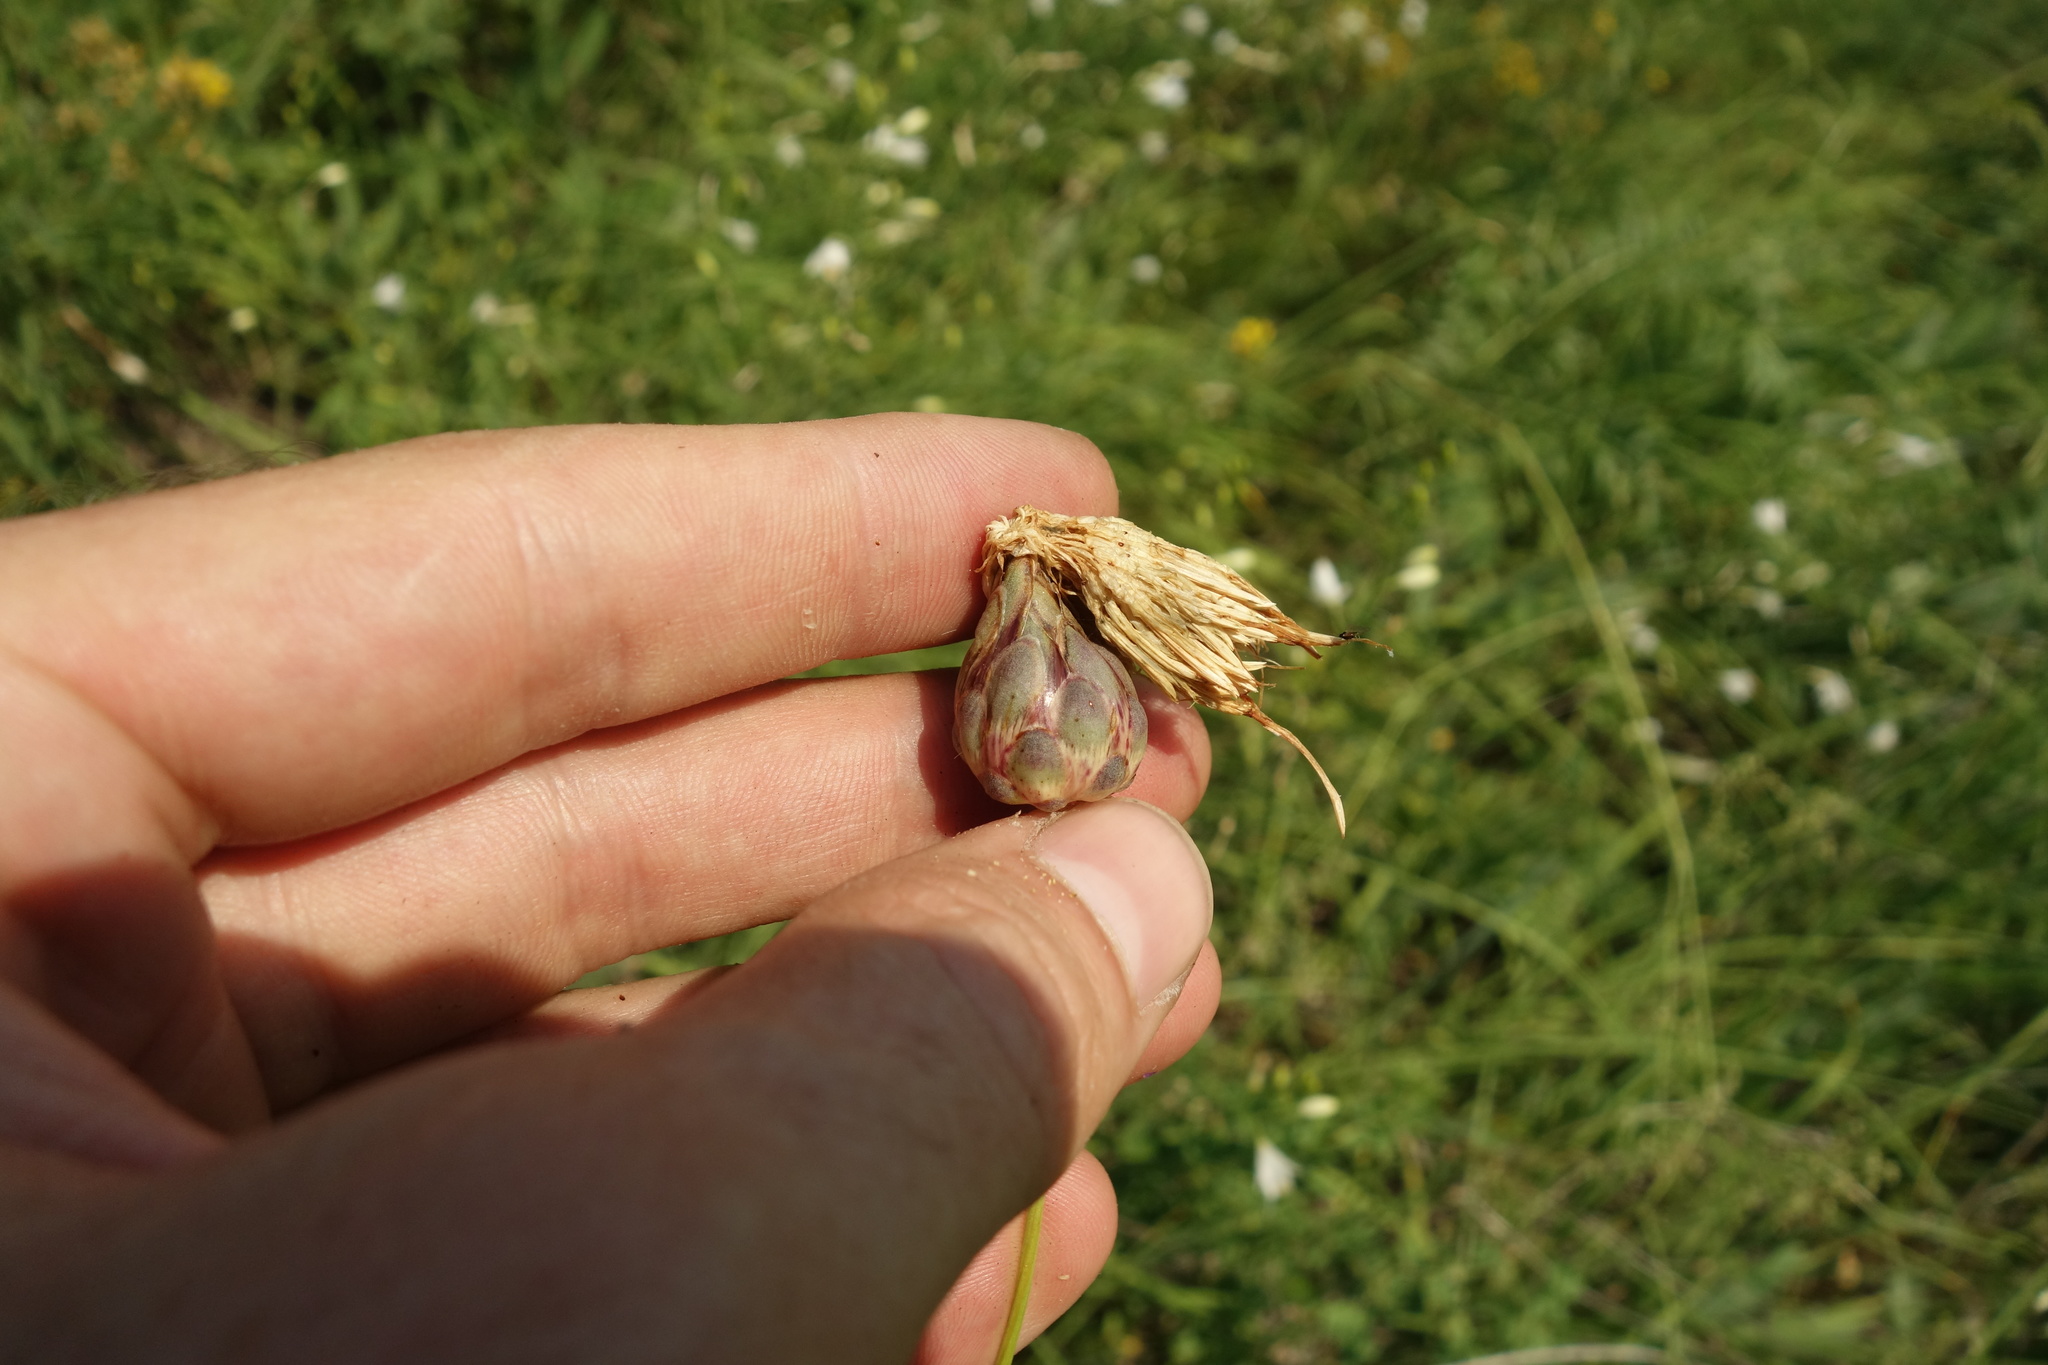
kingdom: Plantae
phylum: Tracheophyta
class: Magnoliopsida
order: Asterales
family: Asteraceae
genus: Rhaponticoides
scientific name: Rhaponticoides ruthenica
